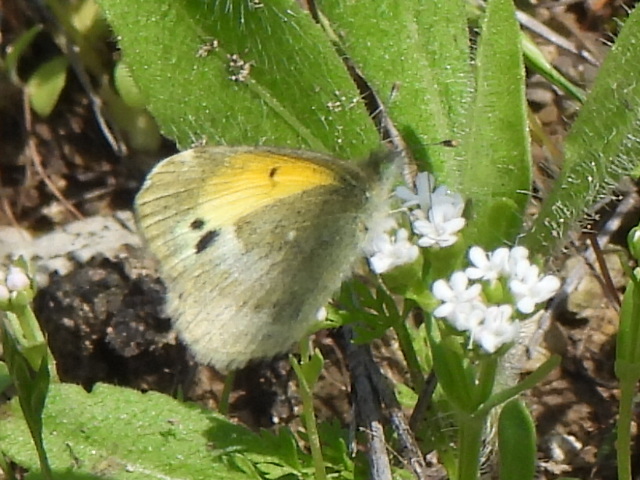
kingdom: Animalia
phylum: Arthropoda
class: Insecta
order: Lepidoptera
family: Pieridae
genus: Nathalis
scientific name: Nathalis iole
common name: Dainty sulphur
